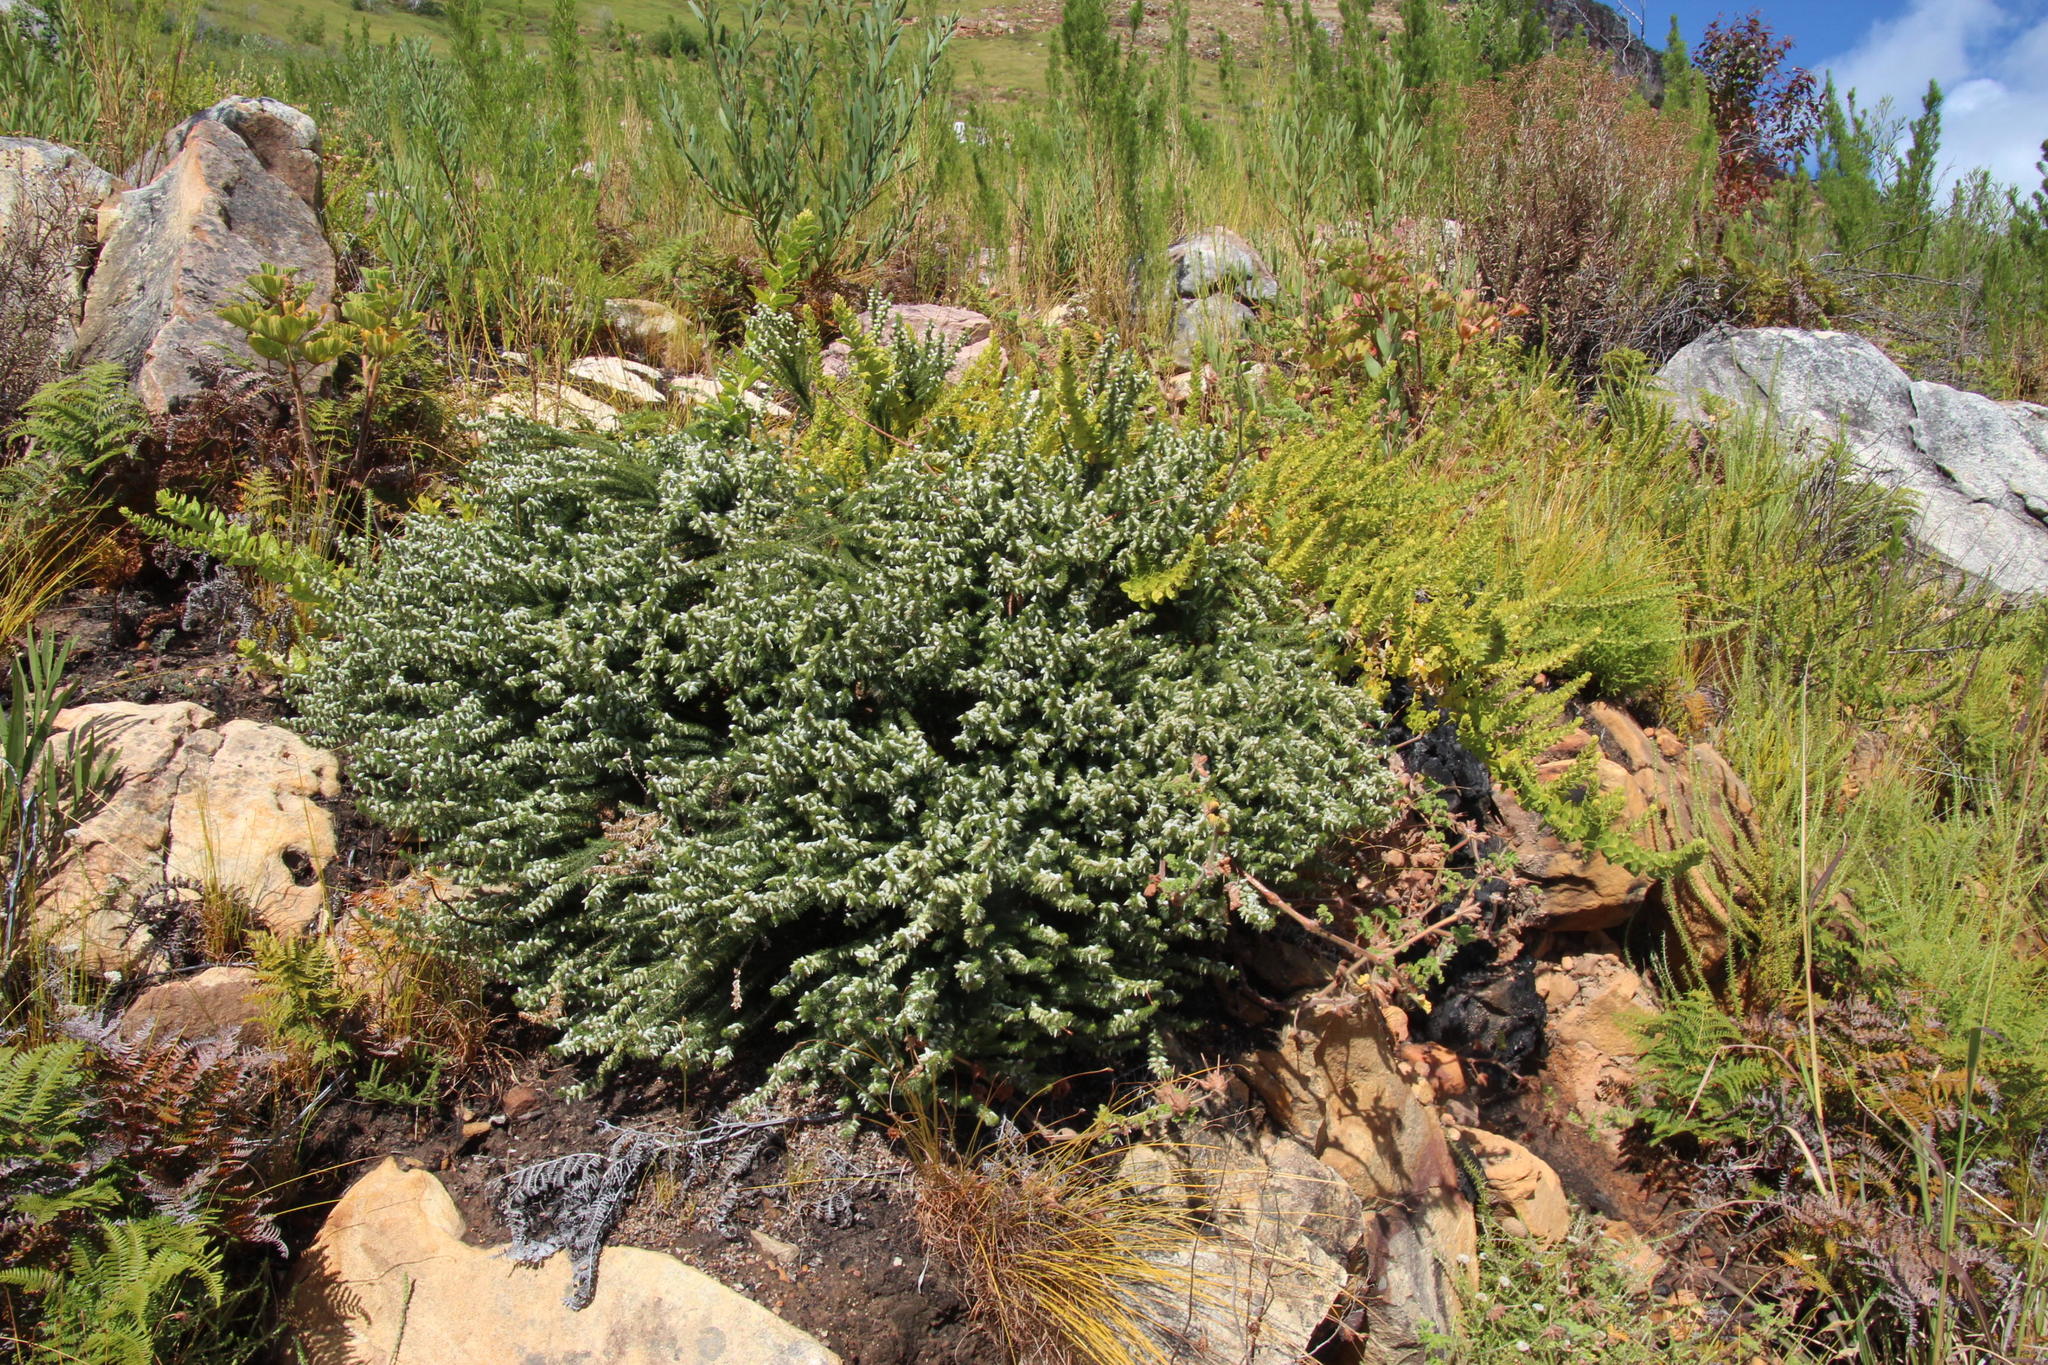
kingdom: Plantae
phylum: Tracheophyta
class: Magnoliopsida
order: Fabales
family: Fabaceae
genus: Aspalathus
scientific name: Aspalathus laricifolia
